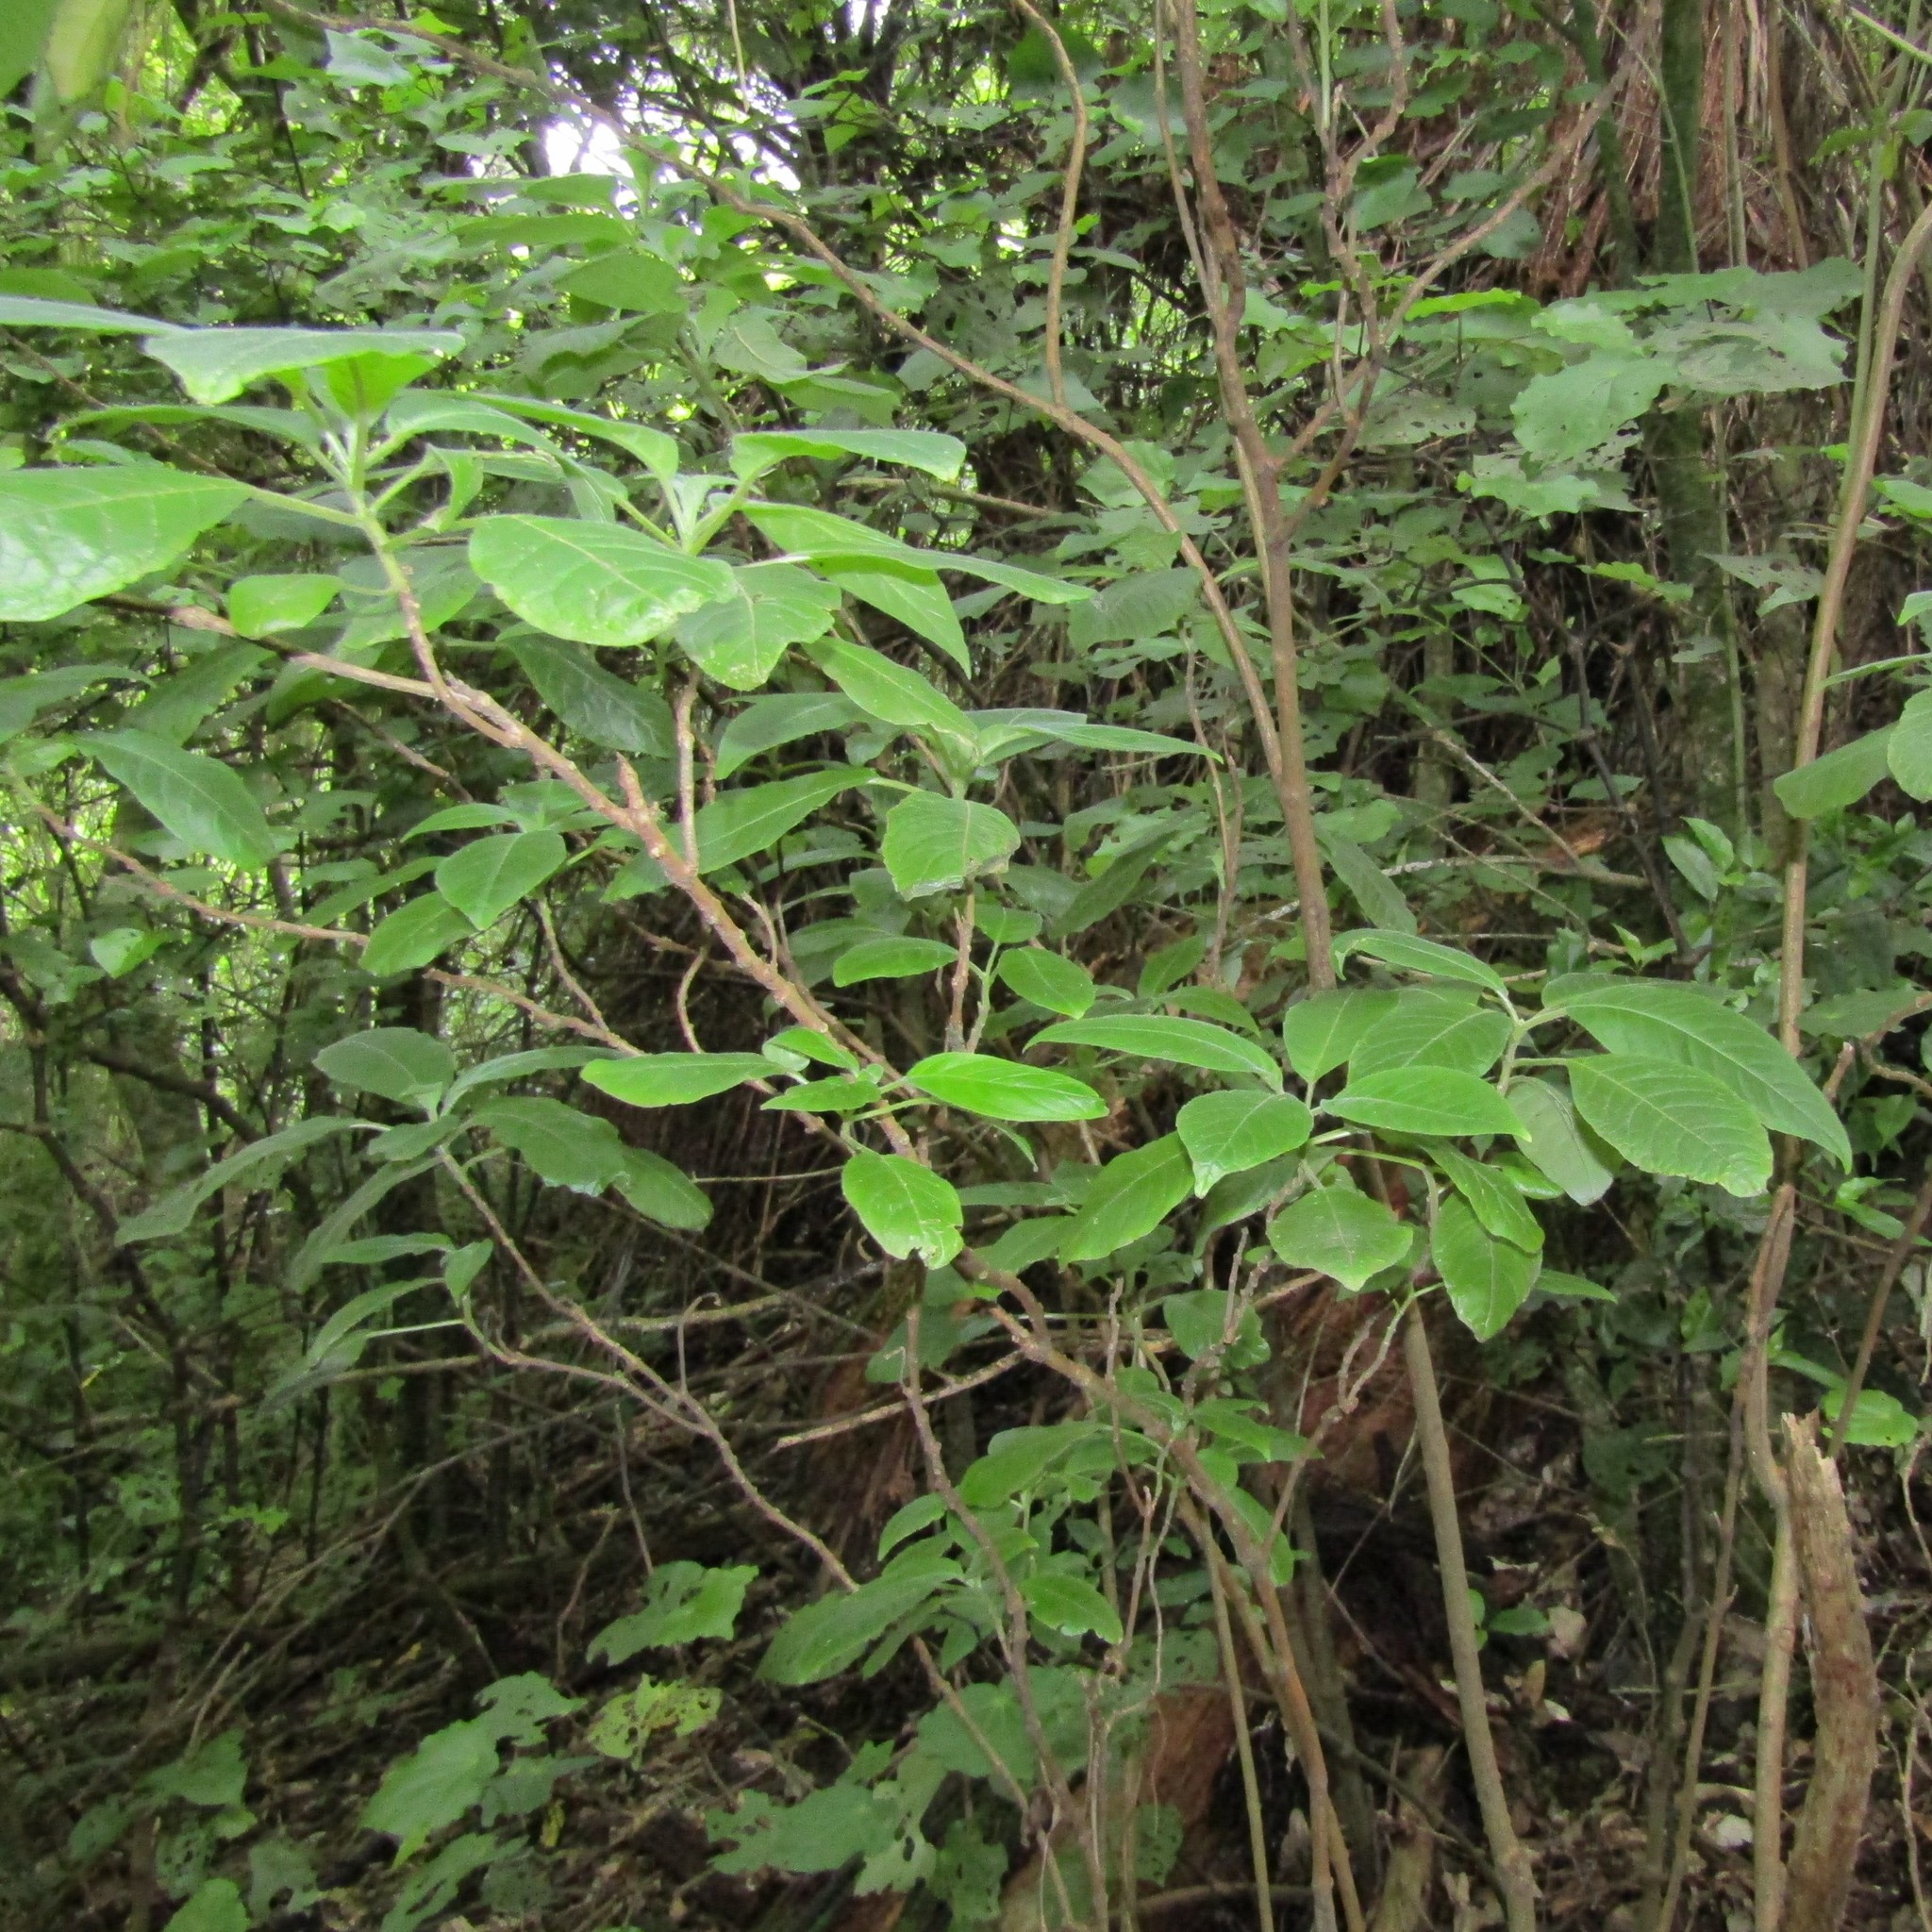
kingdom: Plantae
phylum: Tracheophyta
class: Magnoliopsida
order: Myrtales
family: Onagraceae
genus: Fuchsia
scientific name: Fuchsia boliviana
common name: Bolivian fuchsia
